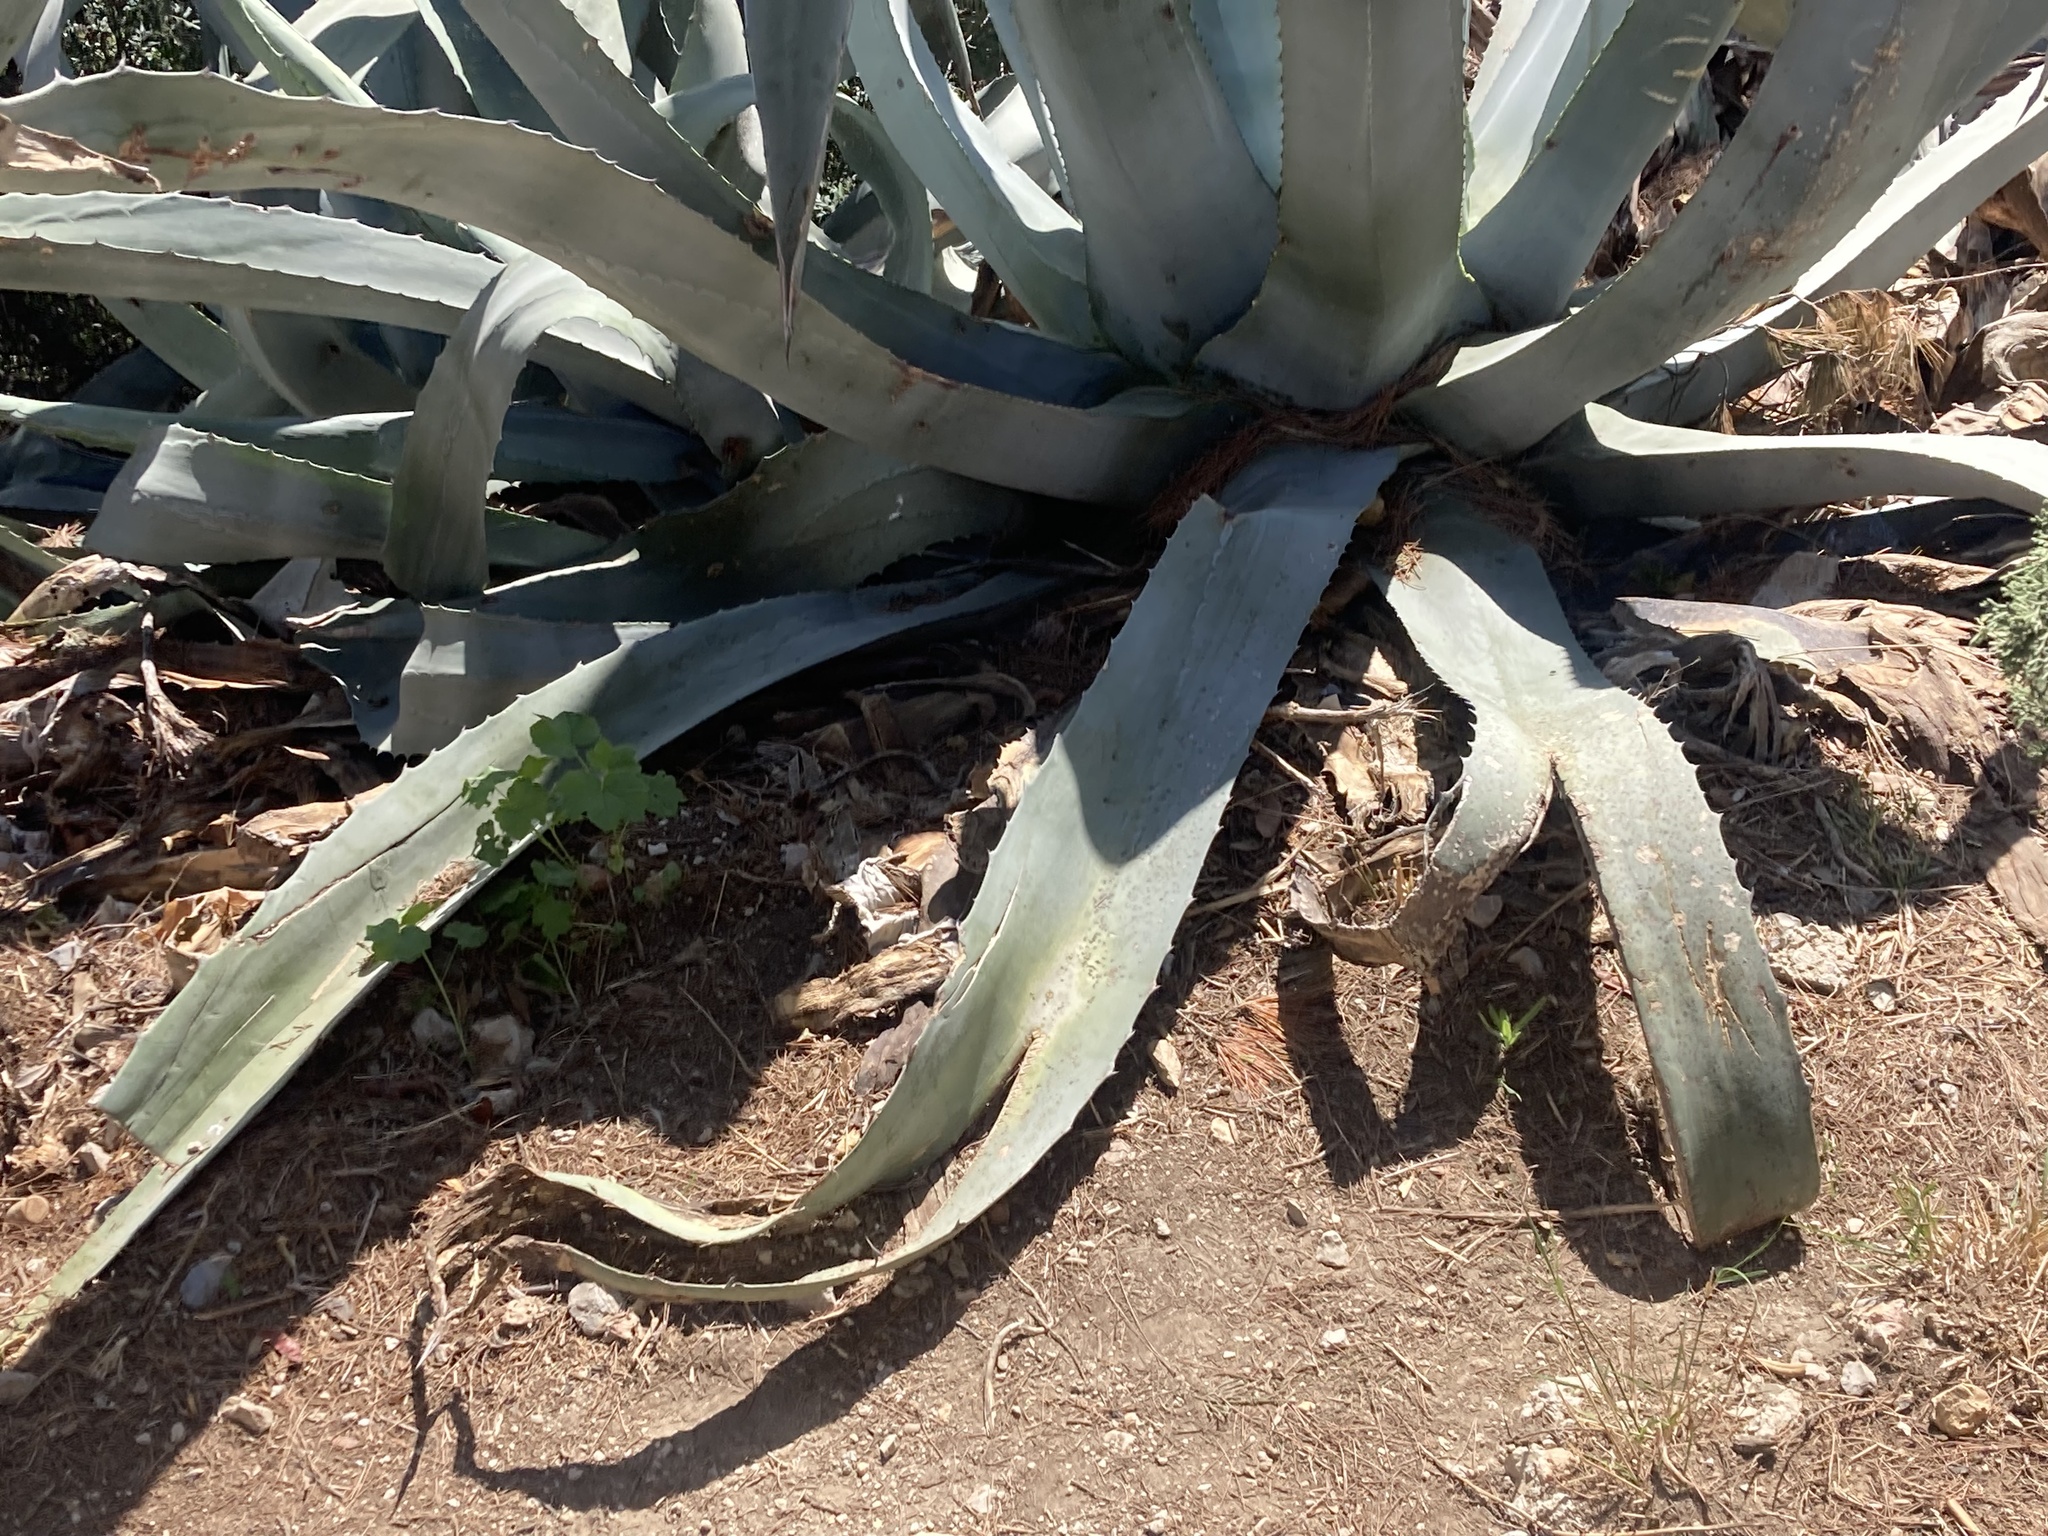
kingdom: Plantae
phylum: Tracheophyta
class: Liliopsida
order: Asparagales
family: Asparagaceae
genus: Agave
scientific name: Agave americana
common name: Centuryplant
